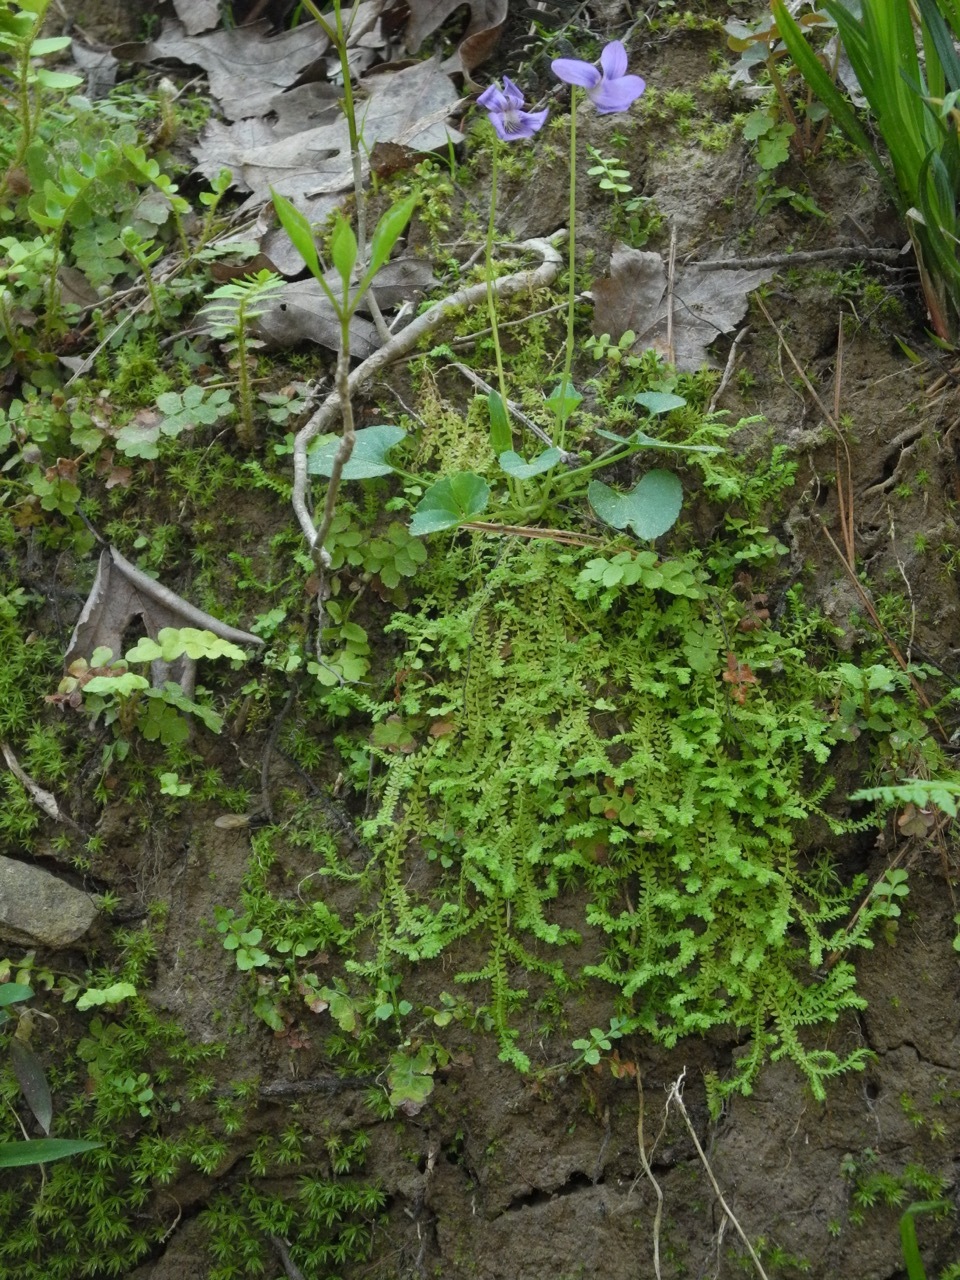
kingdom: Plantae
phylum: Tracheophyta
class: Lycopodiopsida
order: Selaginellales
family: Selaginellaceae
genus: Selaginella
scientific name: Selaginella apoda
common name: Creeping spikemoss
